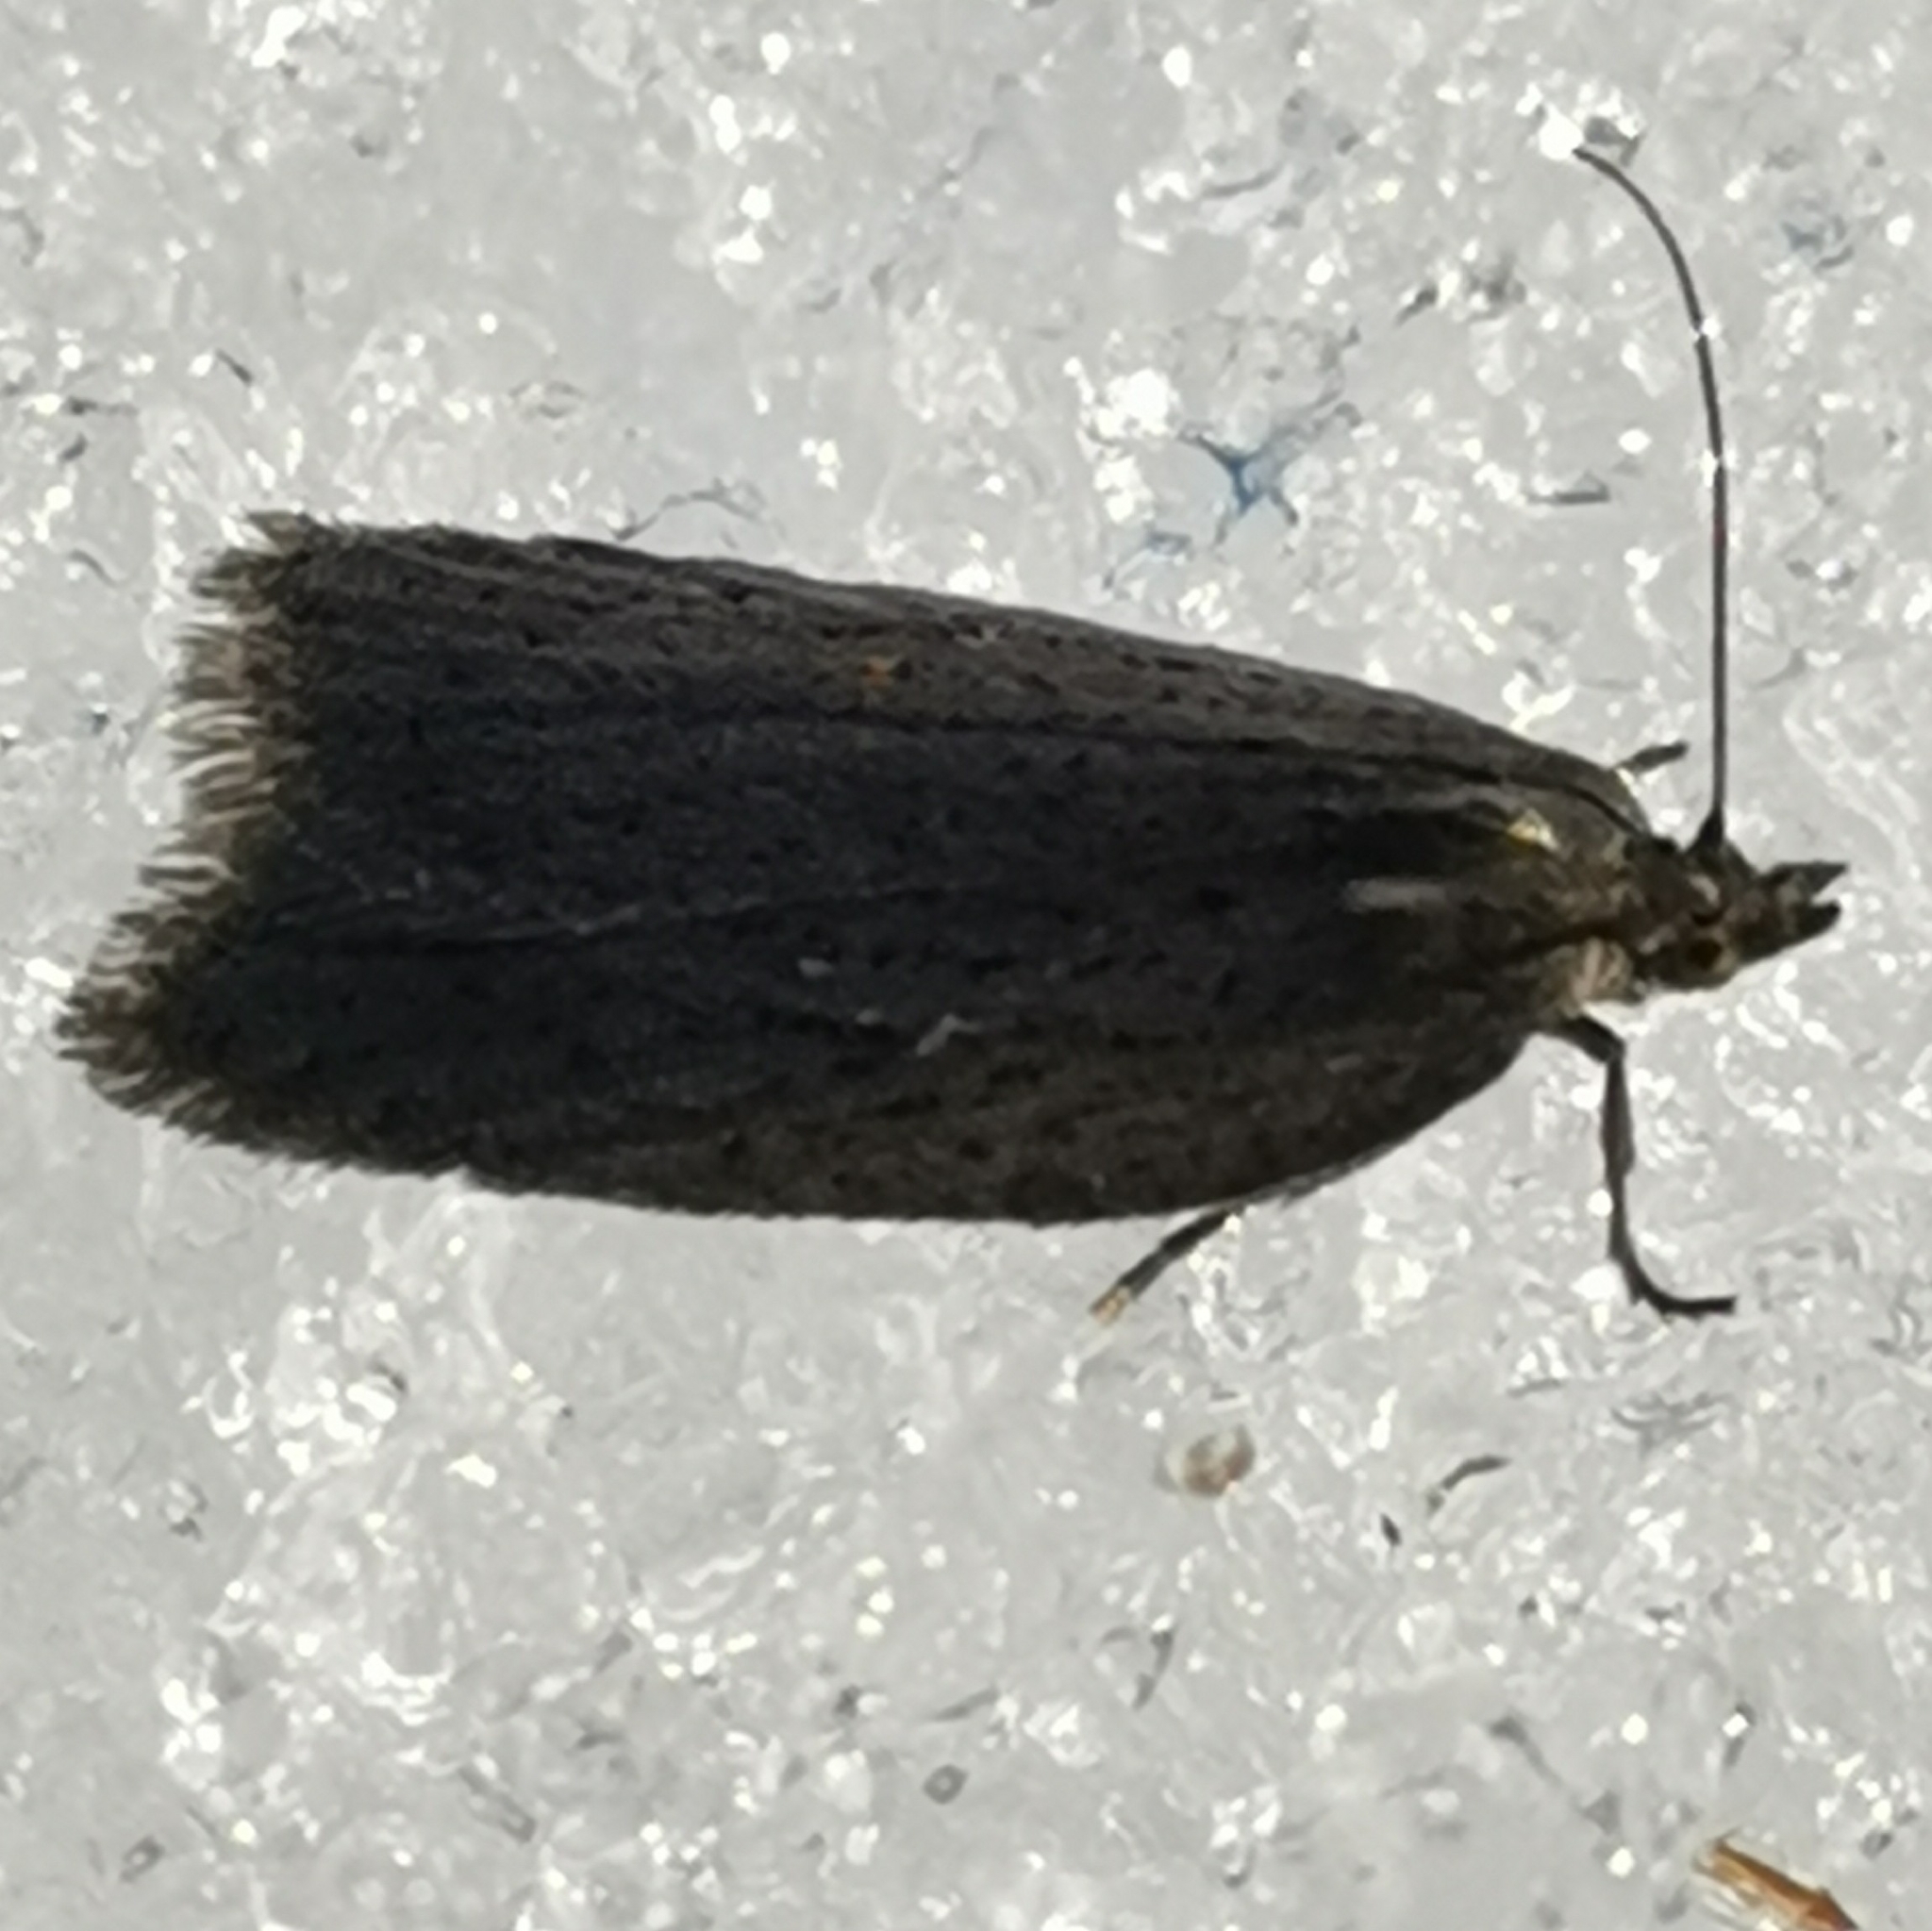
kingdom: Animalia
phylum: Arthropoda
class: Insecta
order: Lepidoptera
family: Tortricidae
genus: Acleris
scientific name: Acleris lipsiana
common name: Northern button
